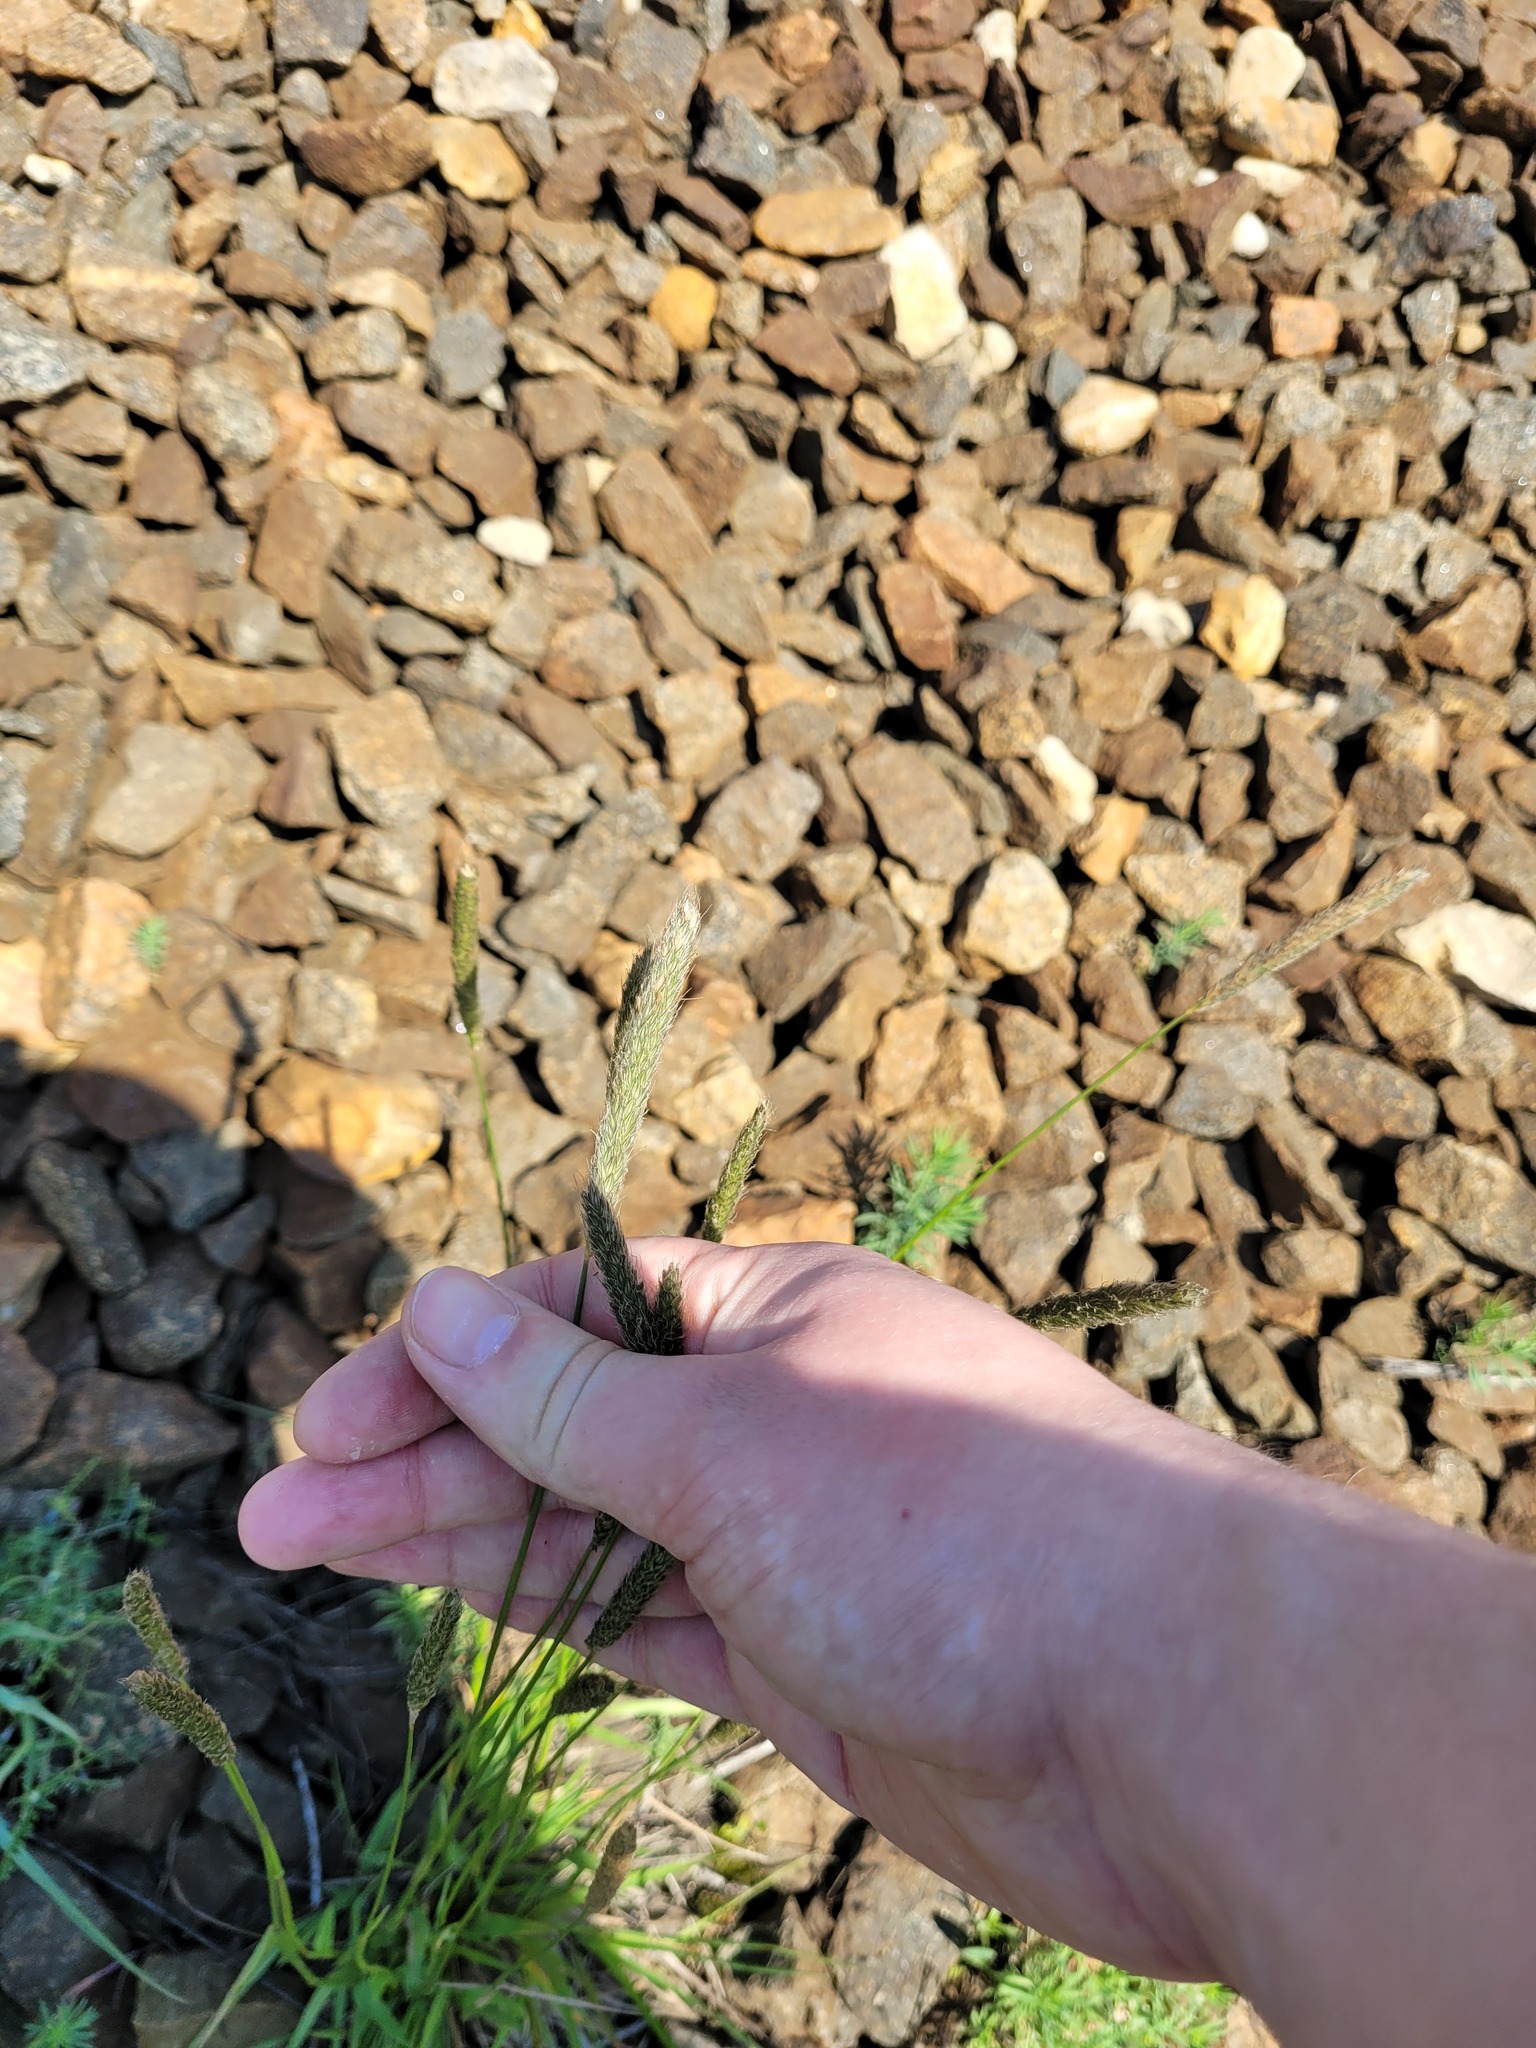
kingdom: Plantae
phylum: Tracheophyta
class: Liliopsida
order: Poales
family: Poaceae
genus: Alopecurus
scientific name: Alopecurus pratensis
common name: Meadow foxtail
